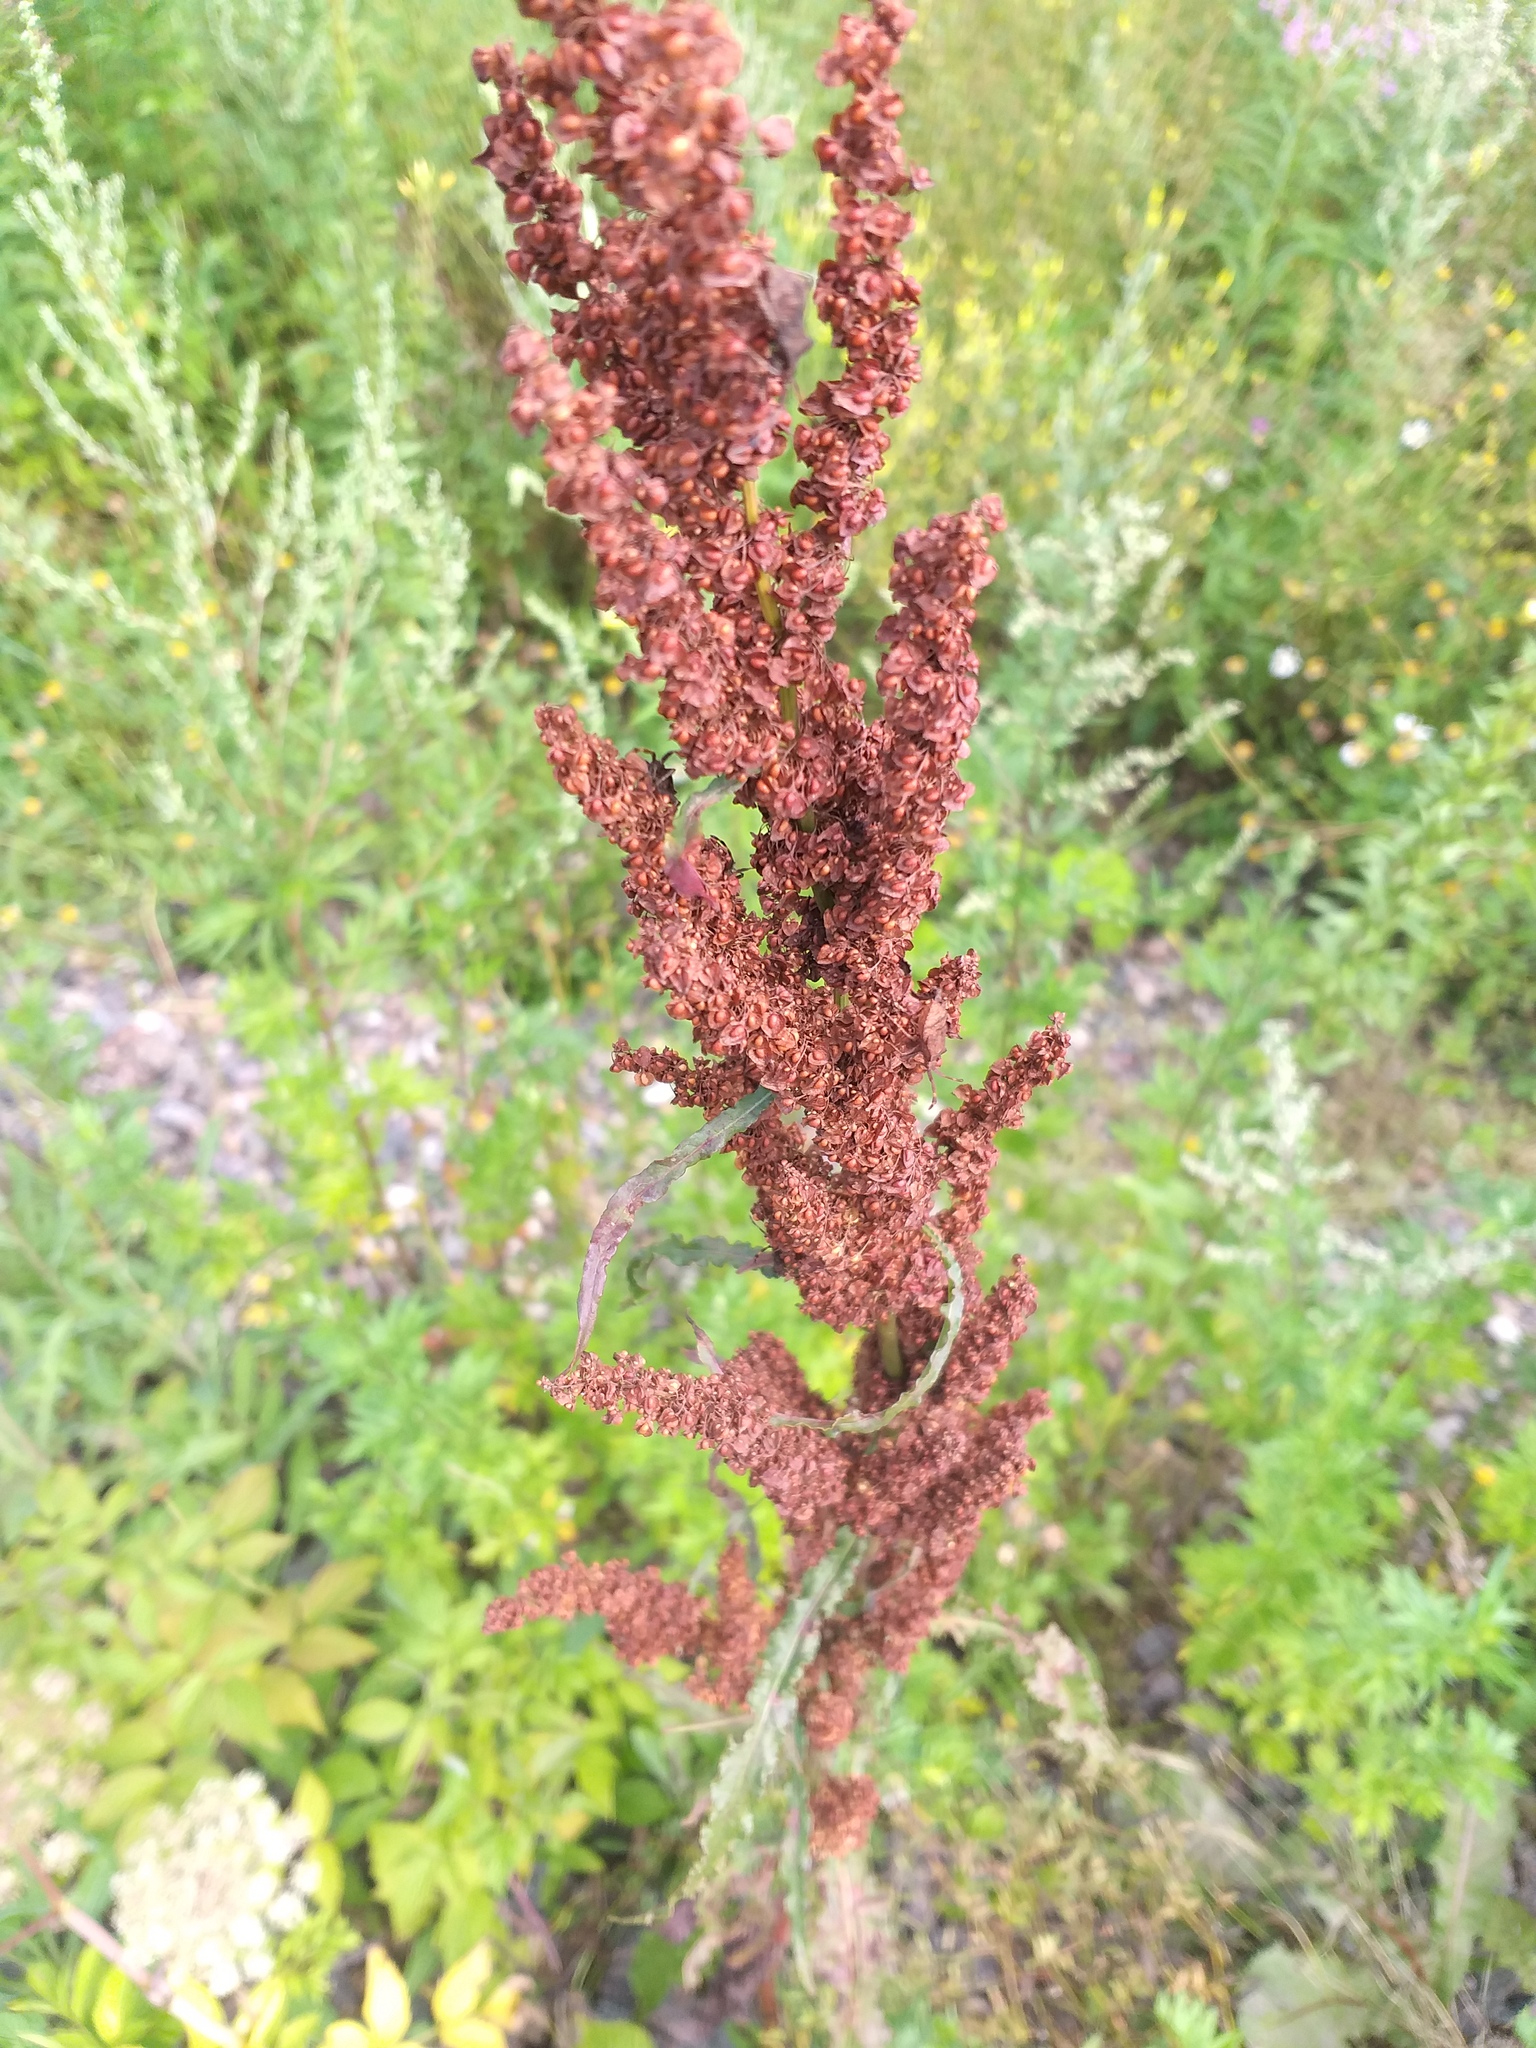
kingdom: Plantae
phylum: Tracheophyta
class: Magnoliopsida
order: Caryophyllales
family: Polygonaceae
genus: Rumex
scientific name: Rumex crispus
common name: Curled dock
